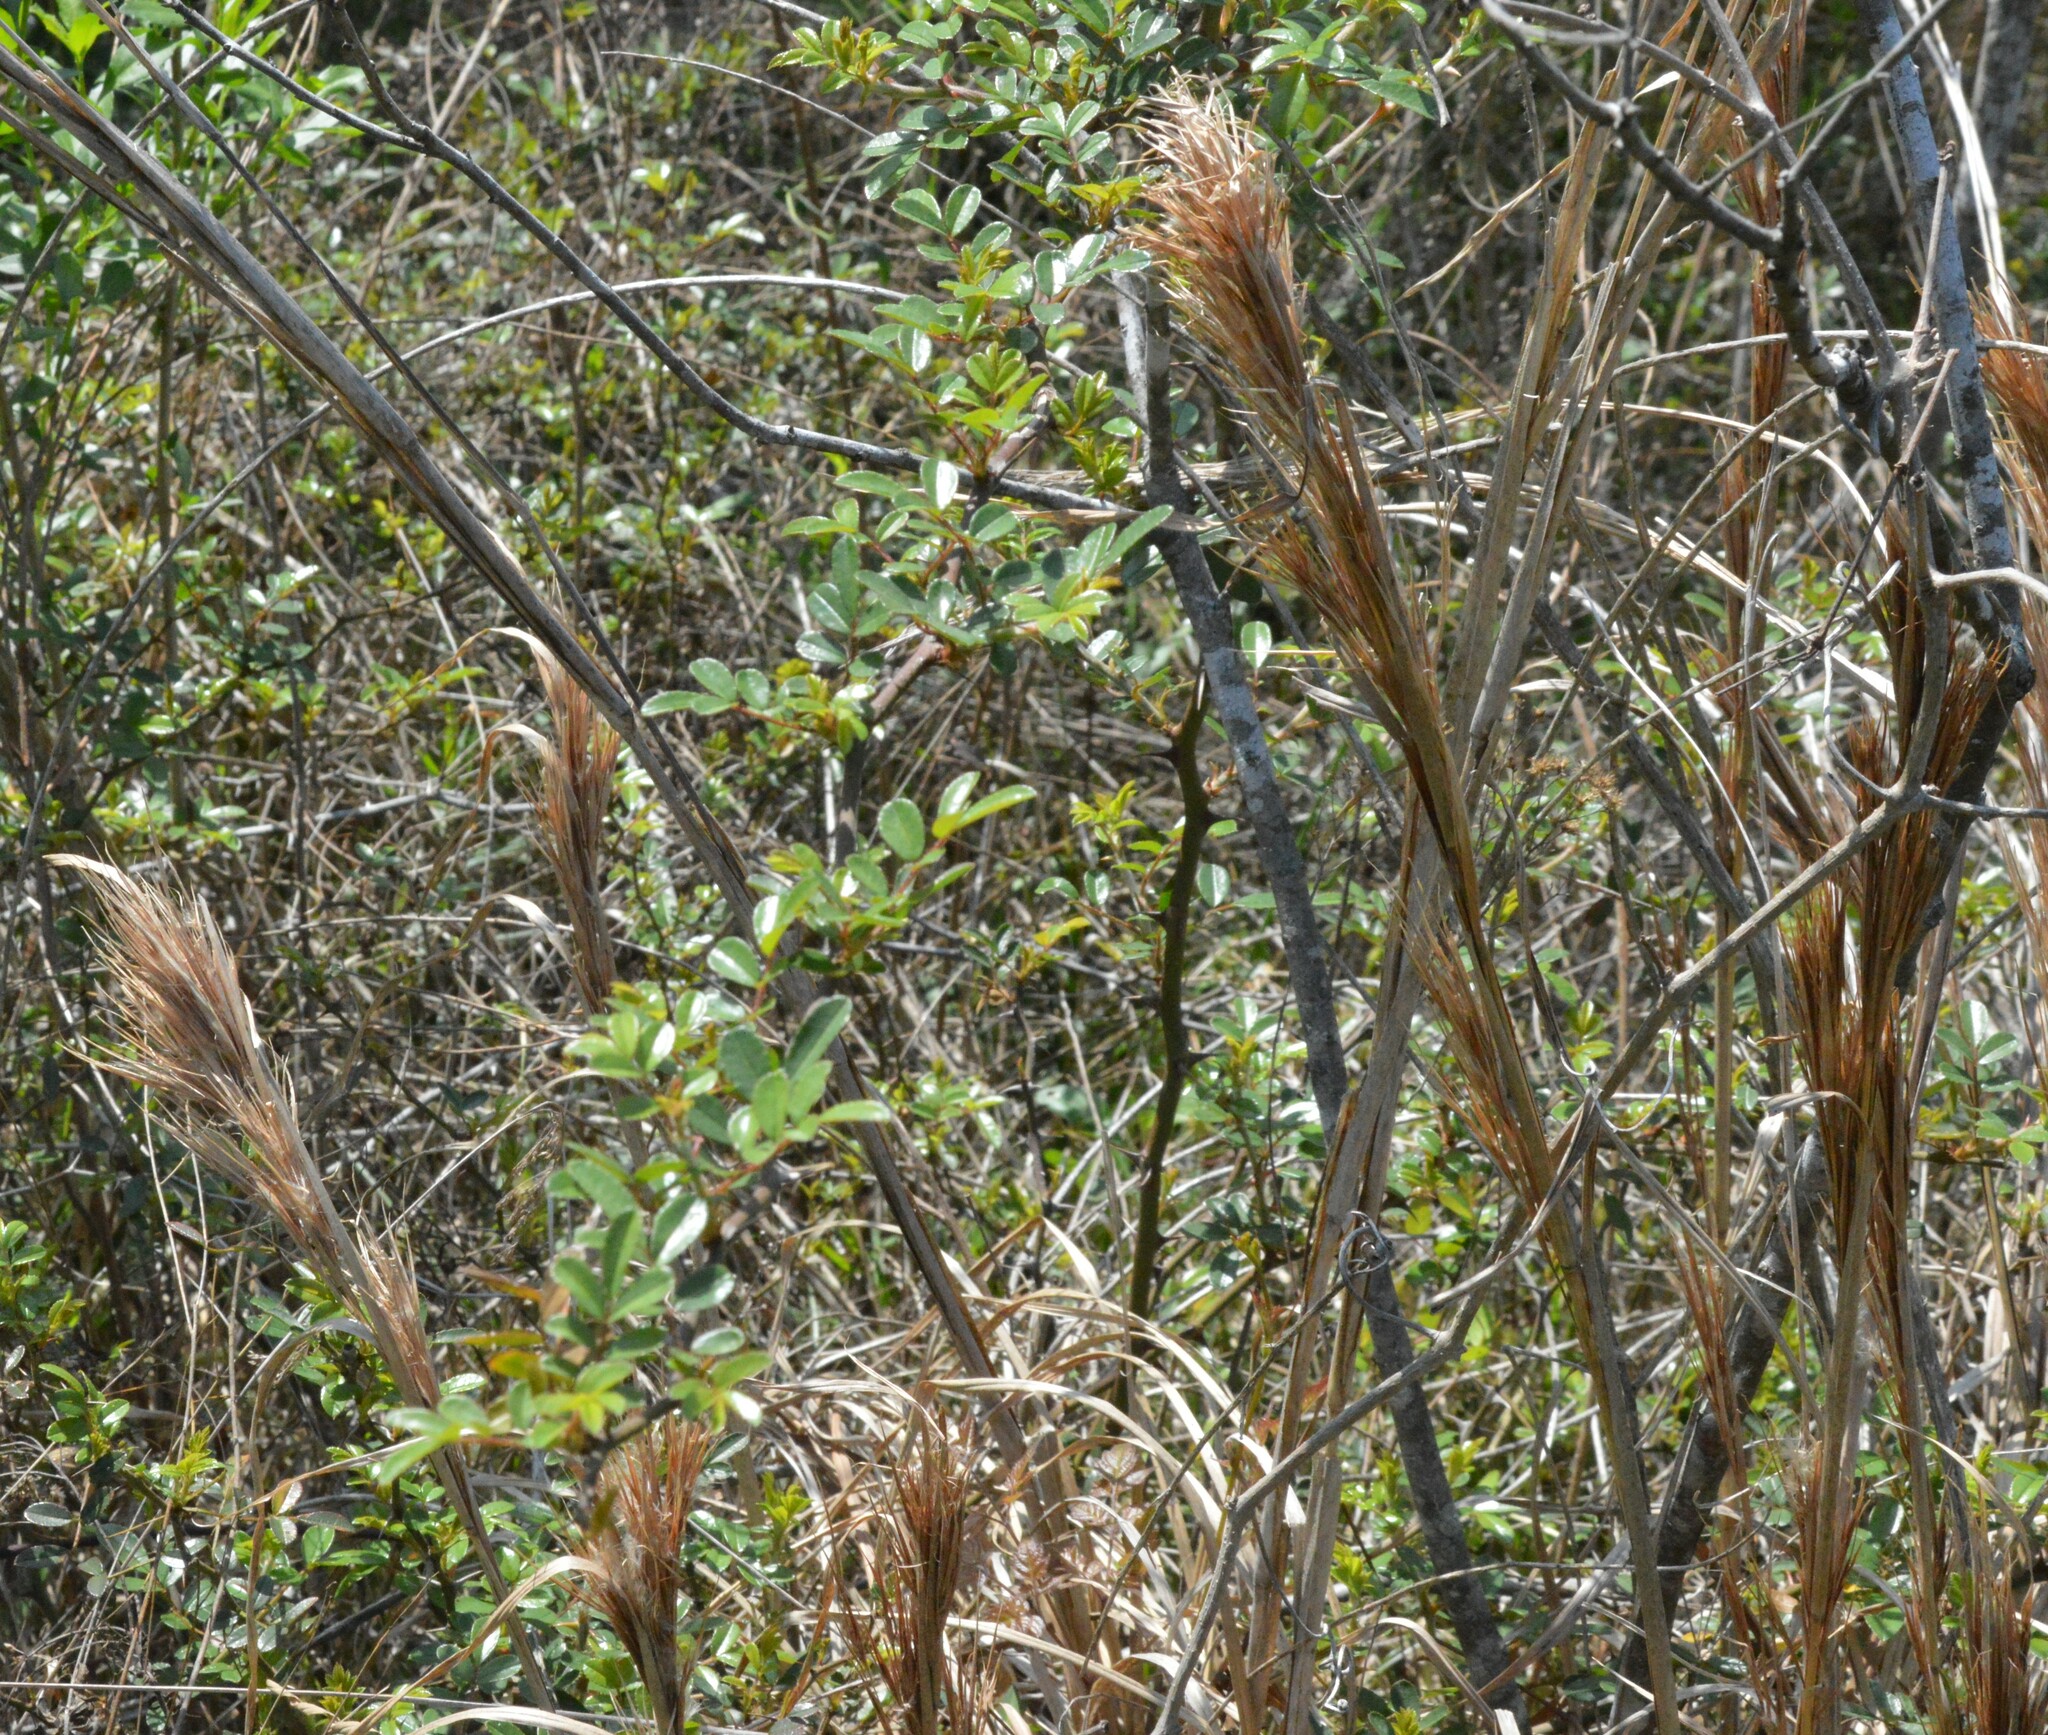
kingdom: Plantae
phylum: Tracheophyta
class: Liliopsida
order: Poales
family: Poaceae
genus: Andropogon
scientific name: Andropogon tenuispatheus
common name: Bushy bluestem
